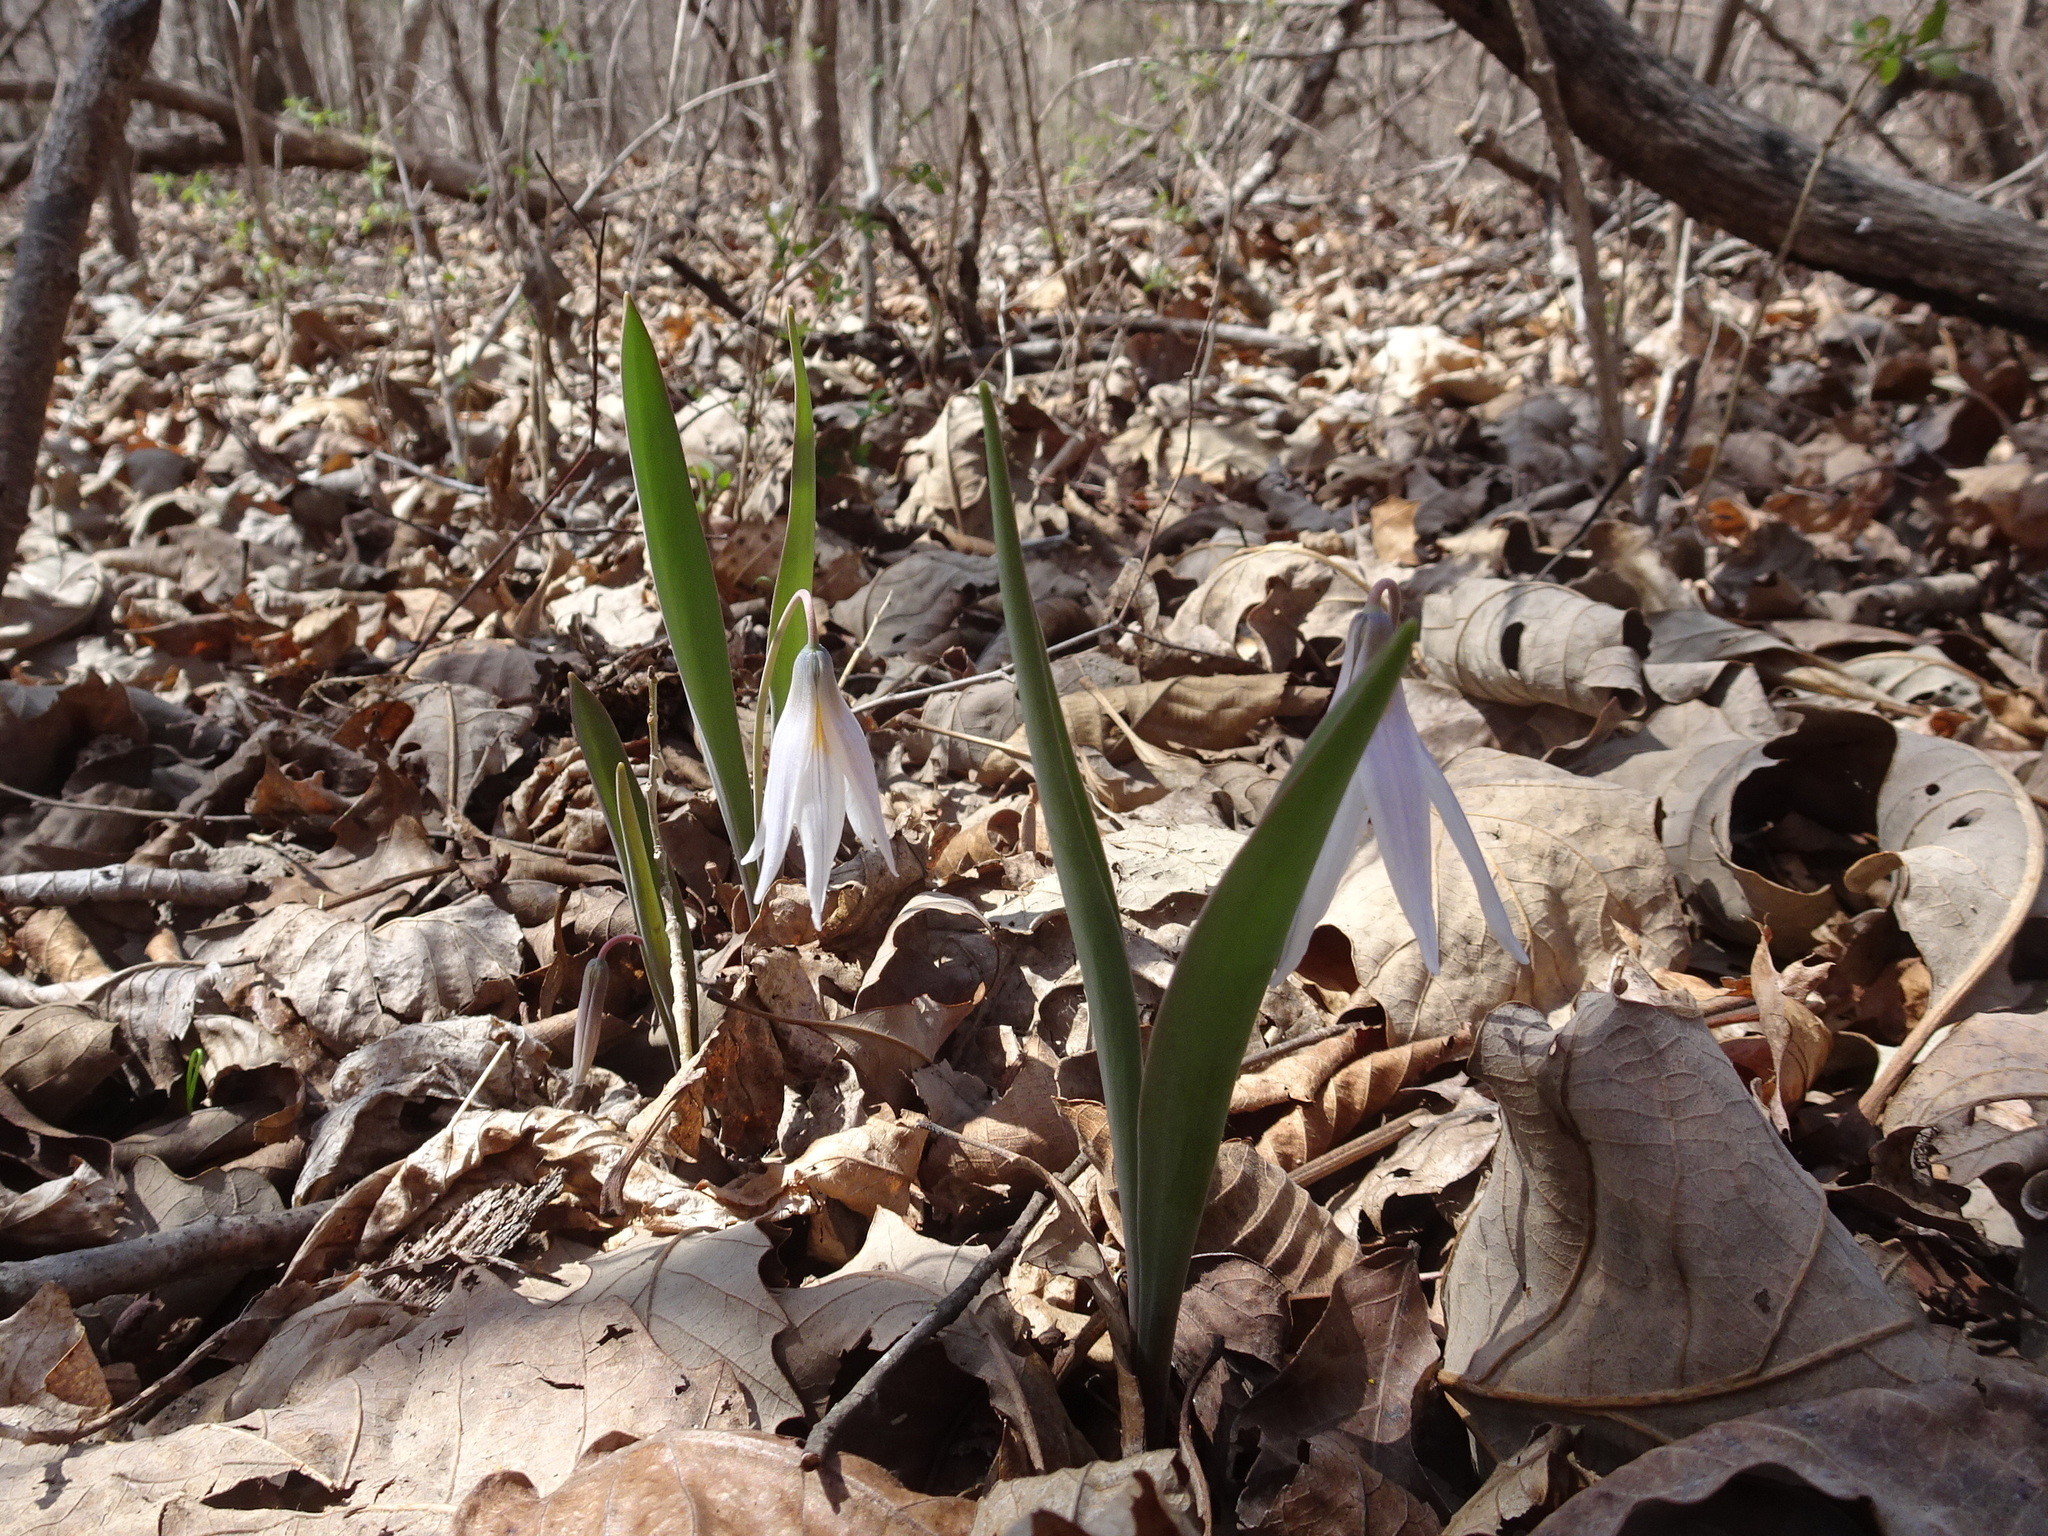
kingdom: Plantae
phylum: Tracheophyta
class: Liliopsida
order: Liliales
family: Liliaceae
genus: Erythronium
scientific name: Erythronium mesochoreum
